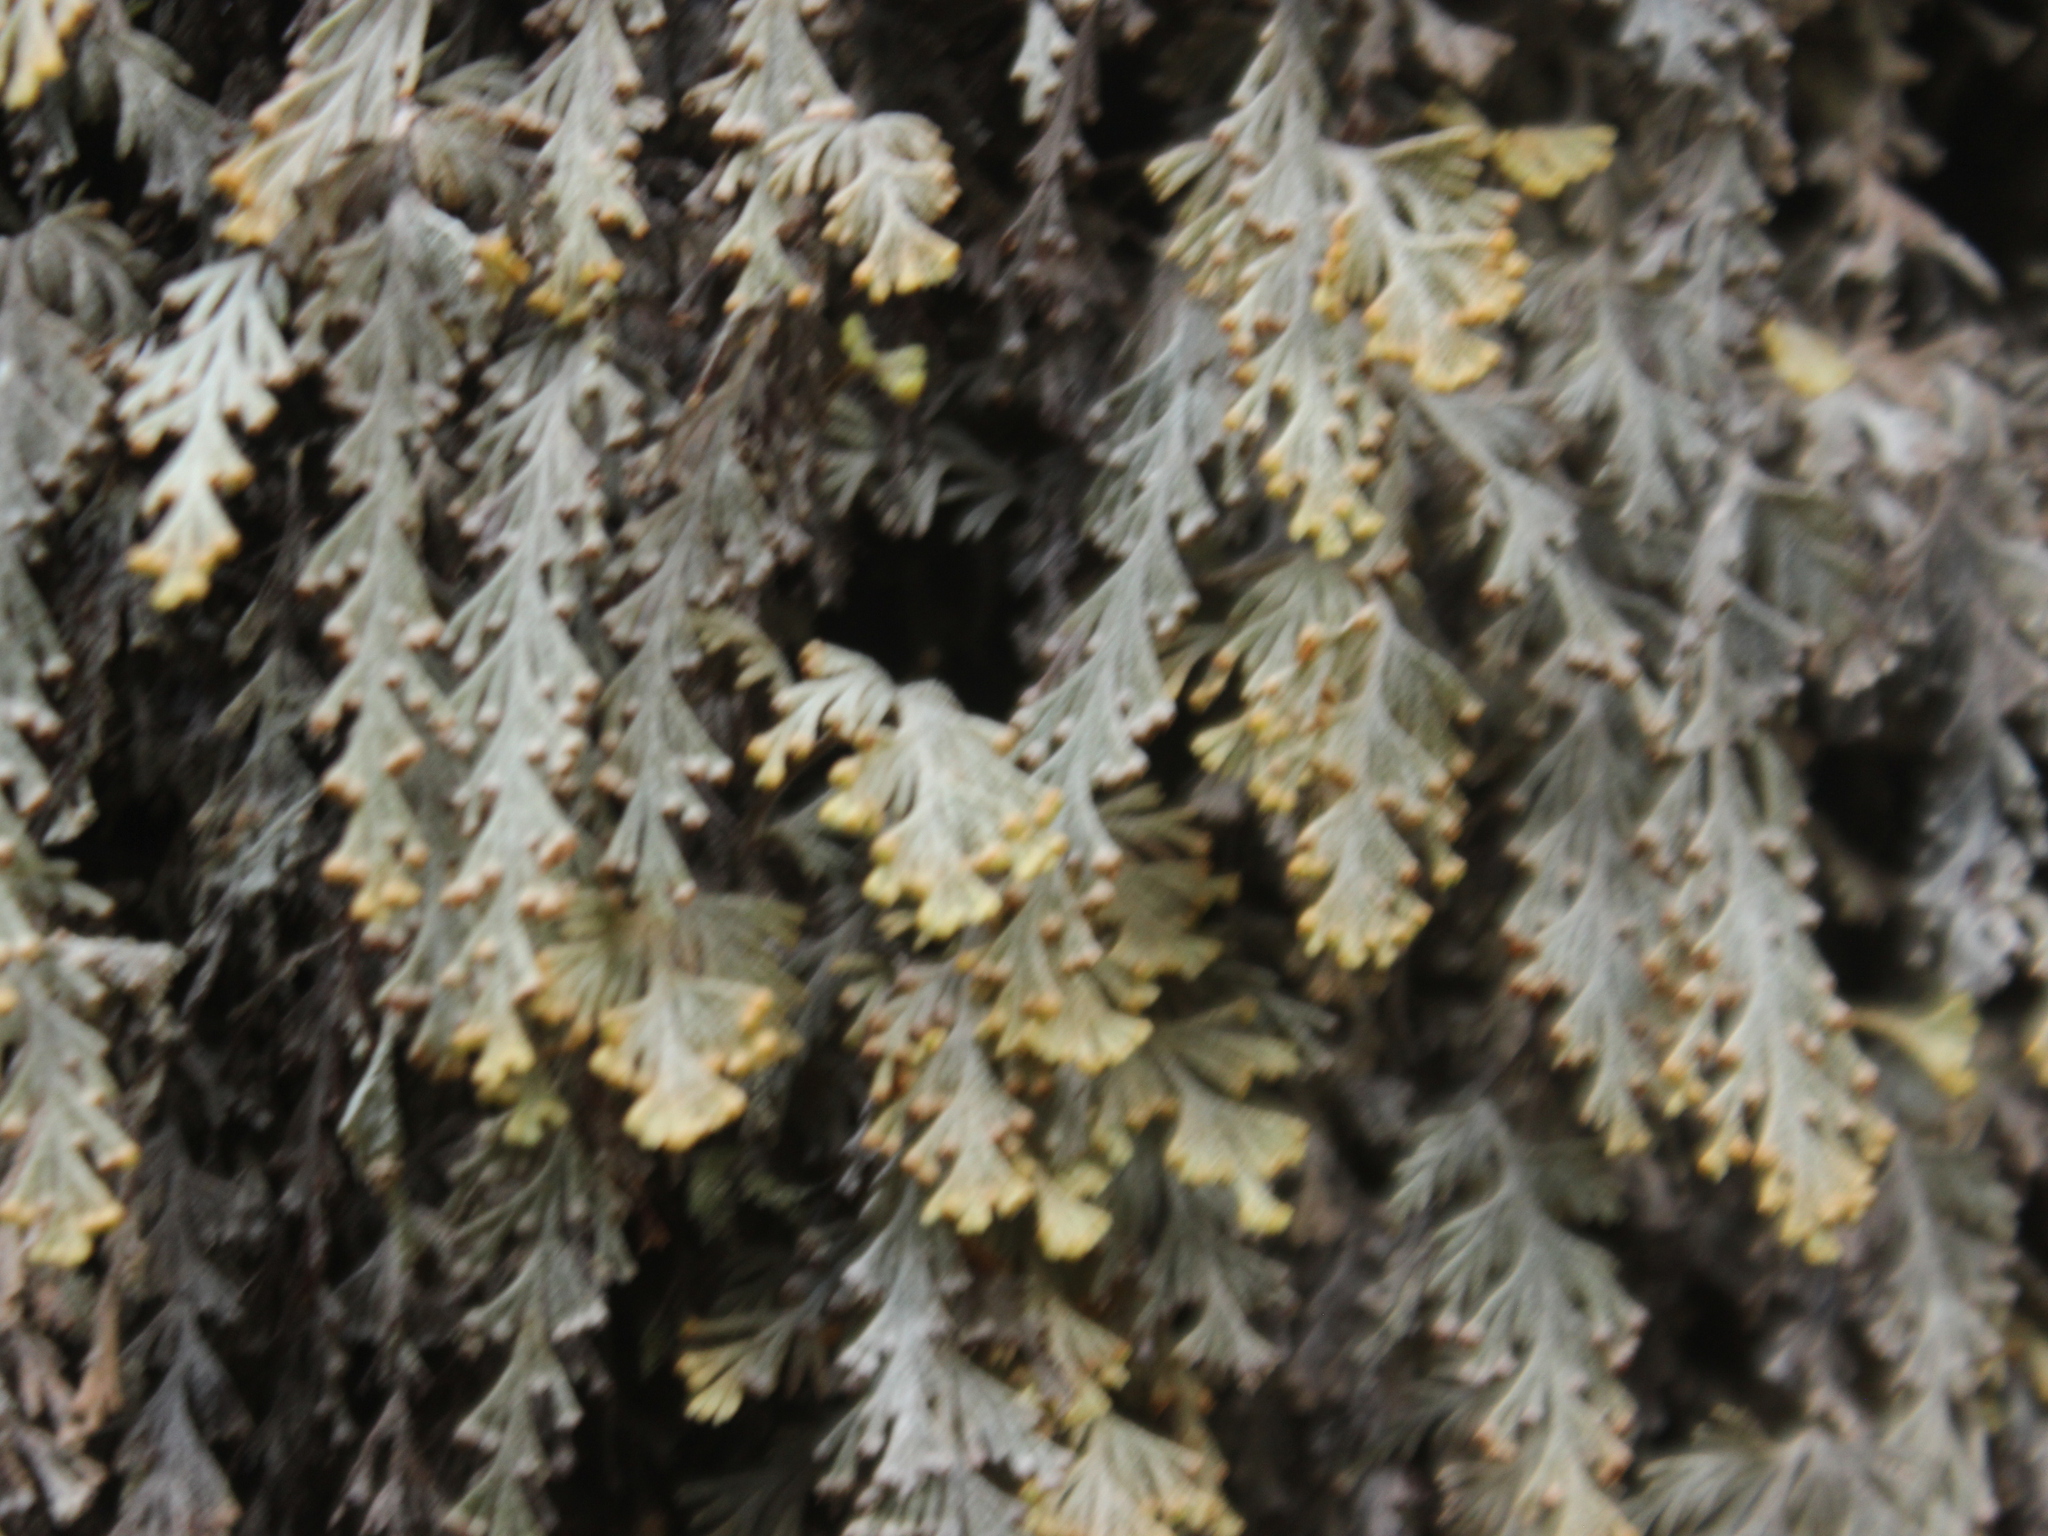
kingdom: Plantae
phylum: Tracheophyta
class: Polypodiopsida
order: Hymenophyllales
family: Hymenophyllaceae
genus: Hymenophyllum
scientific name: Hymenophyllum malingii
